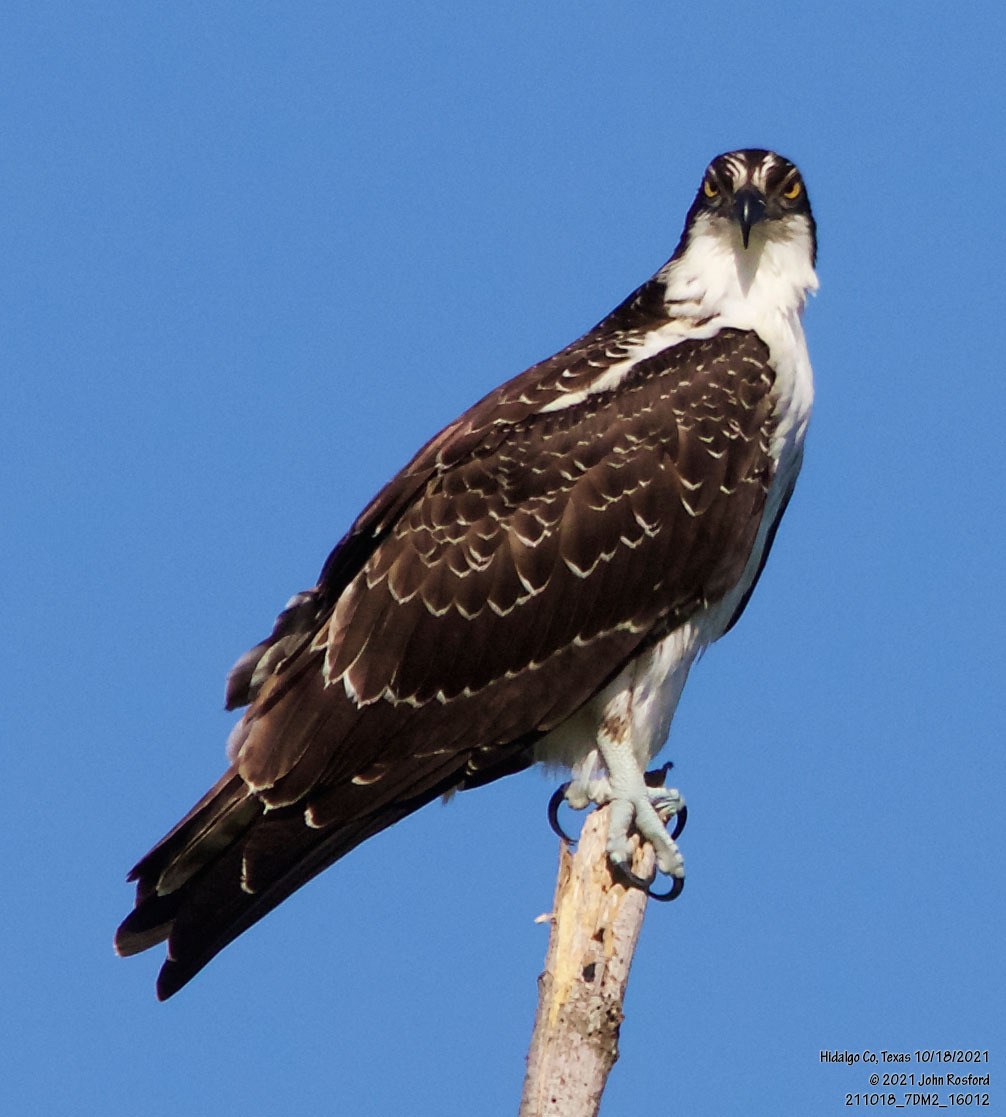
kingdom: Animalia
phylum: Chordata
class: Aves
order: Accipitriformes
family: Pandionidae
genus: Pandion
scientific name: Pandion haliaetus
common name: Osprey
